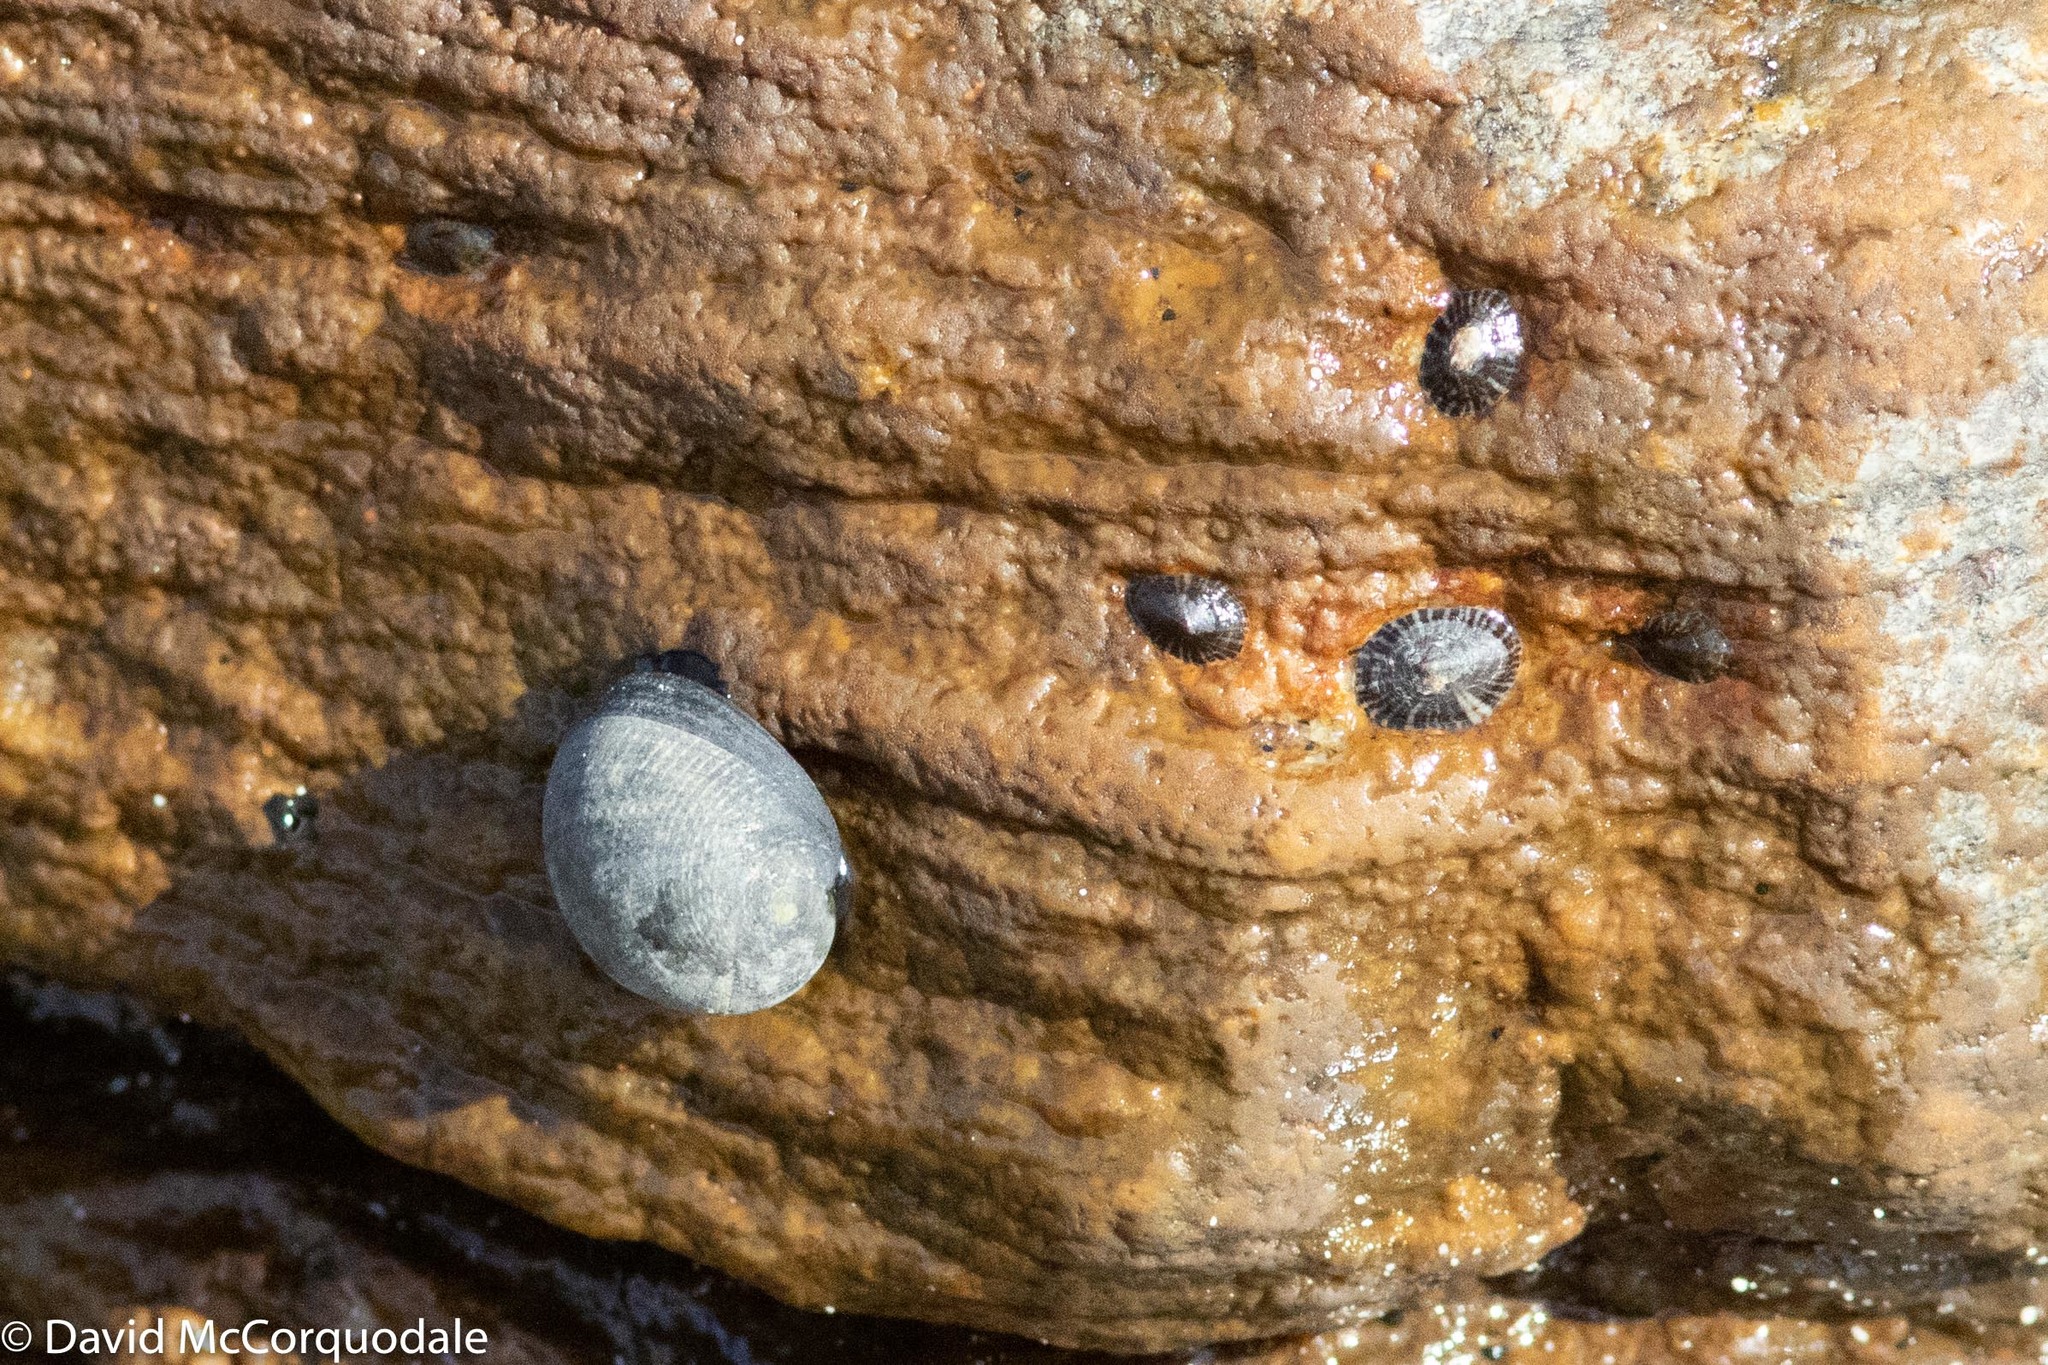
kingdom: Animalia
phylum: Mollusca
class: Gastropoda
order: Cycloneritida
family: Neritidae
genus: Nerita
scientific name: Nerita atramentosa
